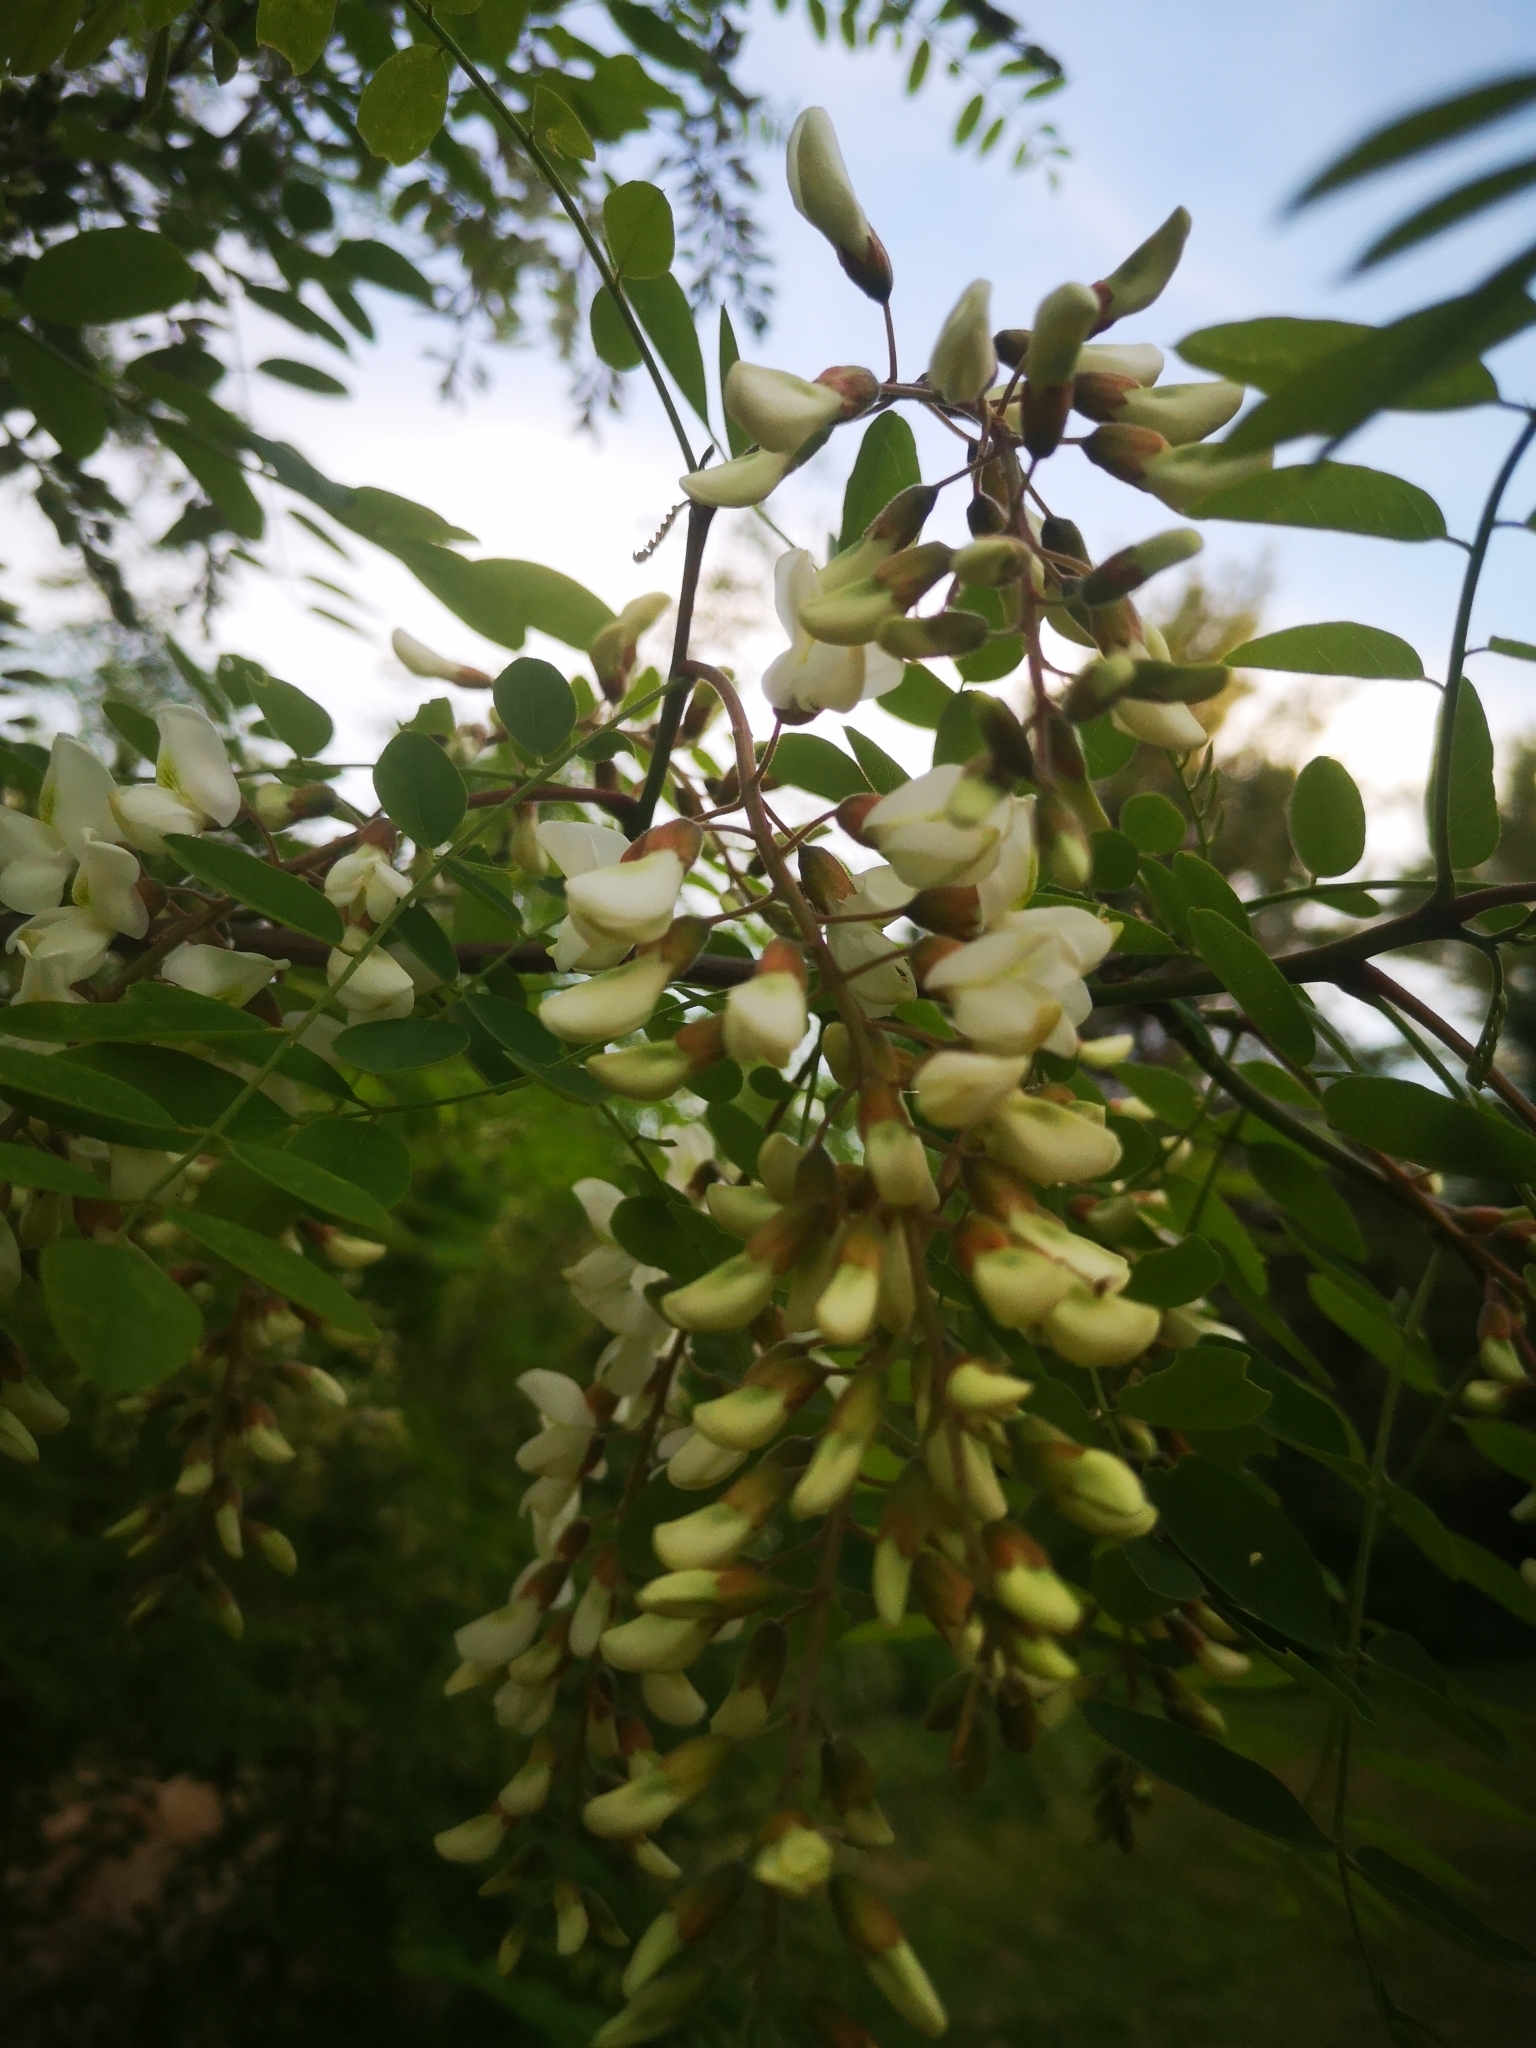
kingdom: Plantae
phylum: Tracheophyta
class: Magnoliopsida
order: Fabales
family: Fabaceae
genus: Robinia
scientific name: Robinia pseudoacacia
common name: Black locust
